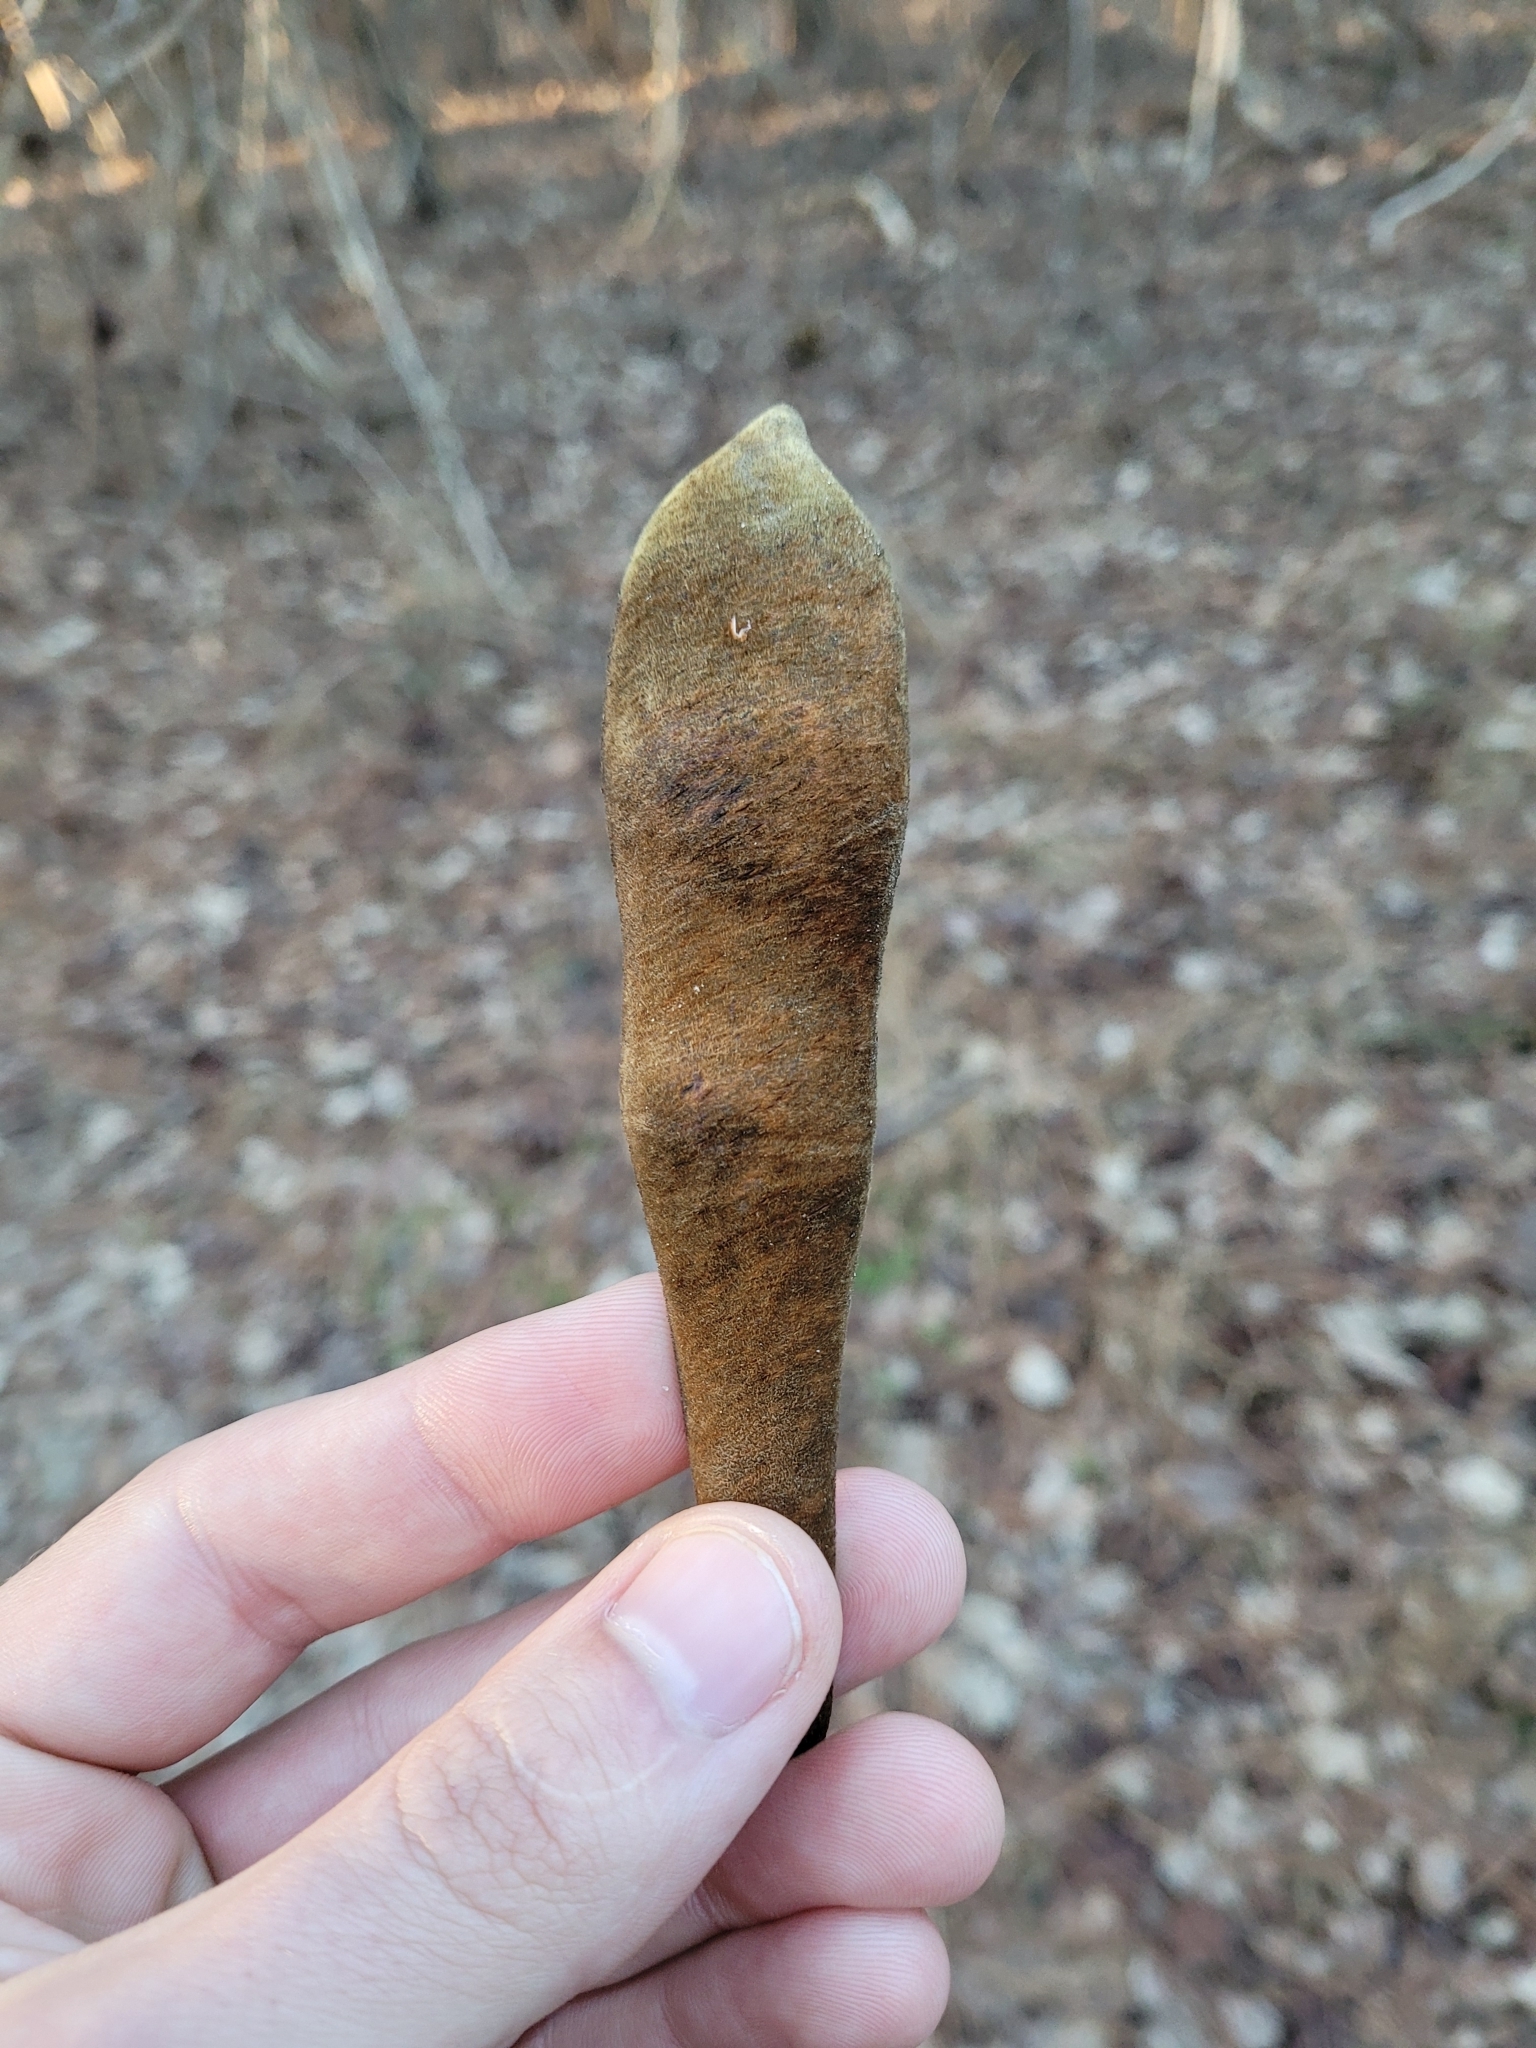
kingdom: Plantae
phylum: Tracheophyta
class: Magnoliopsida
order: Fabales
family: Fabaceae
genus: Wisteria
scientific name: Wisteria sinensis
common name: Chinese wisteria
